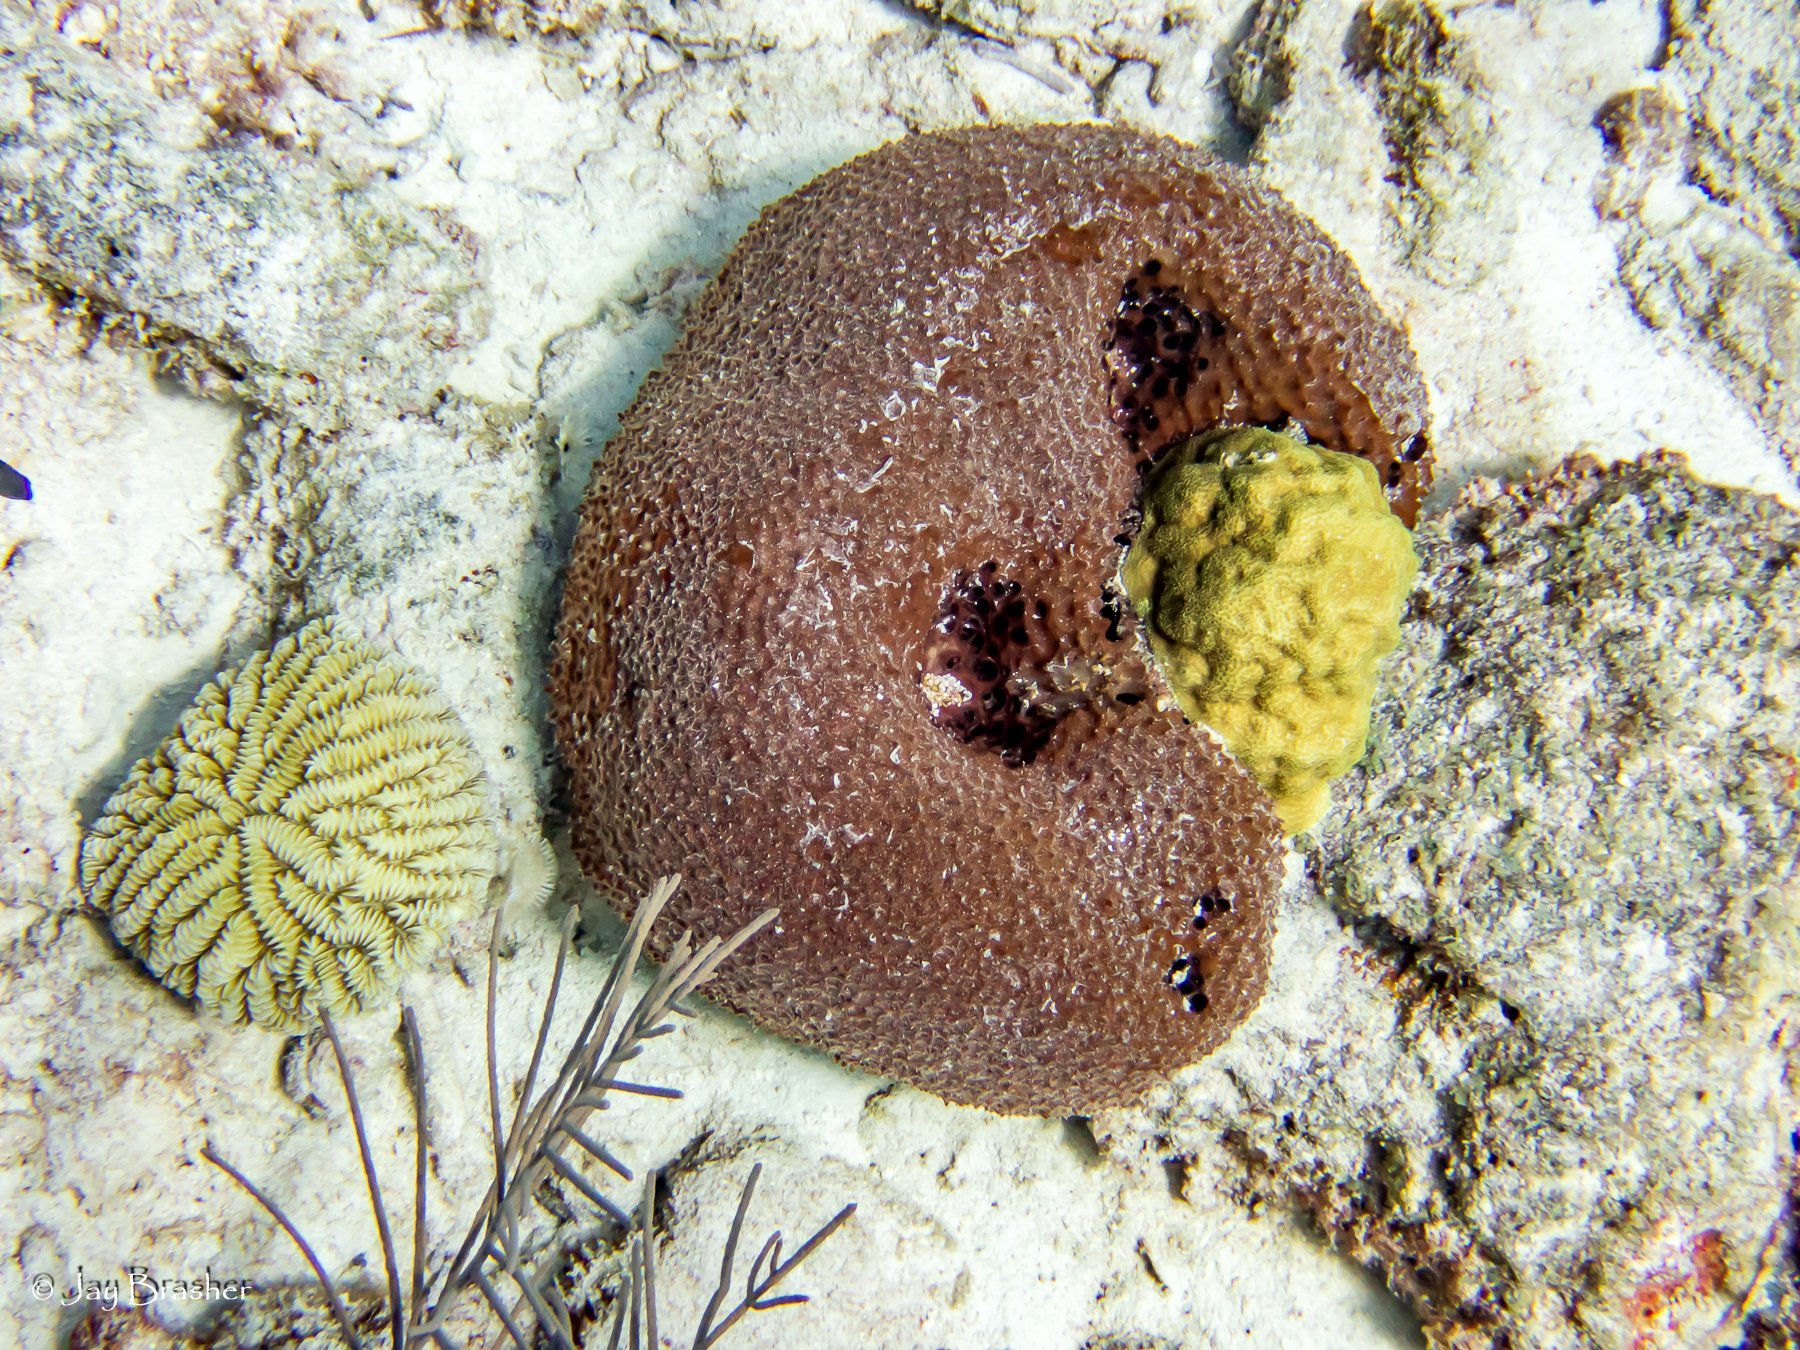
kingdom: Animalia
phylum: Porifera
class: Demospongiae
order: Dictyoceratida
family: Irciniidae
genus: Ircinia
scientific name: Ircinia felix
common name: Stinker sponge
